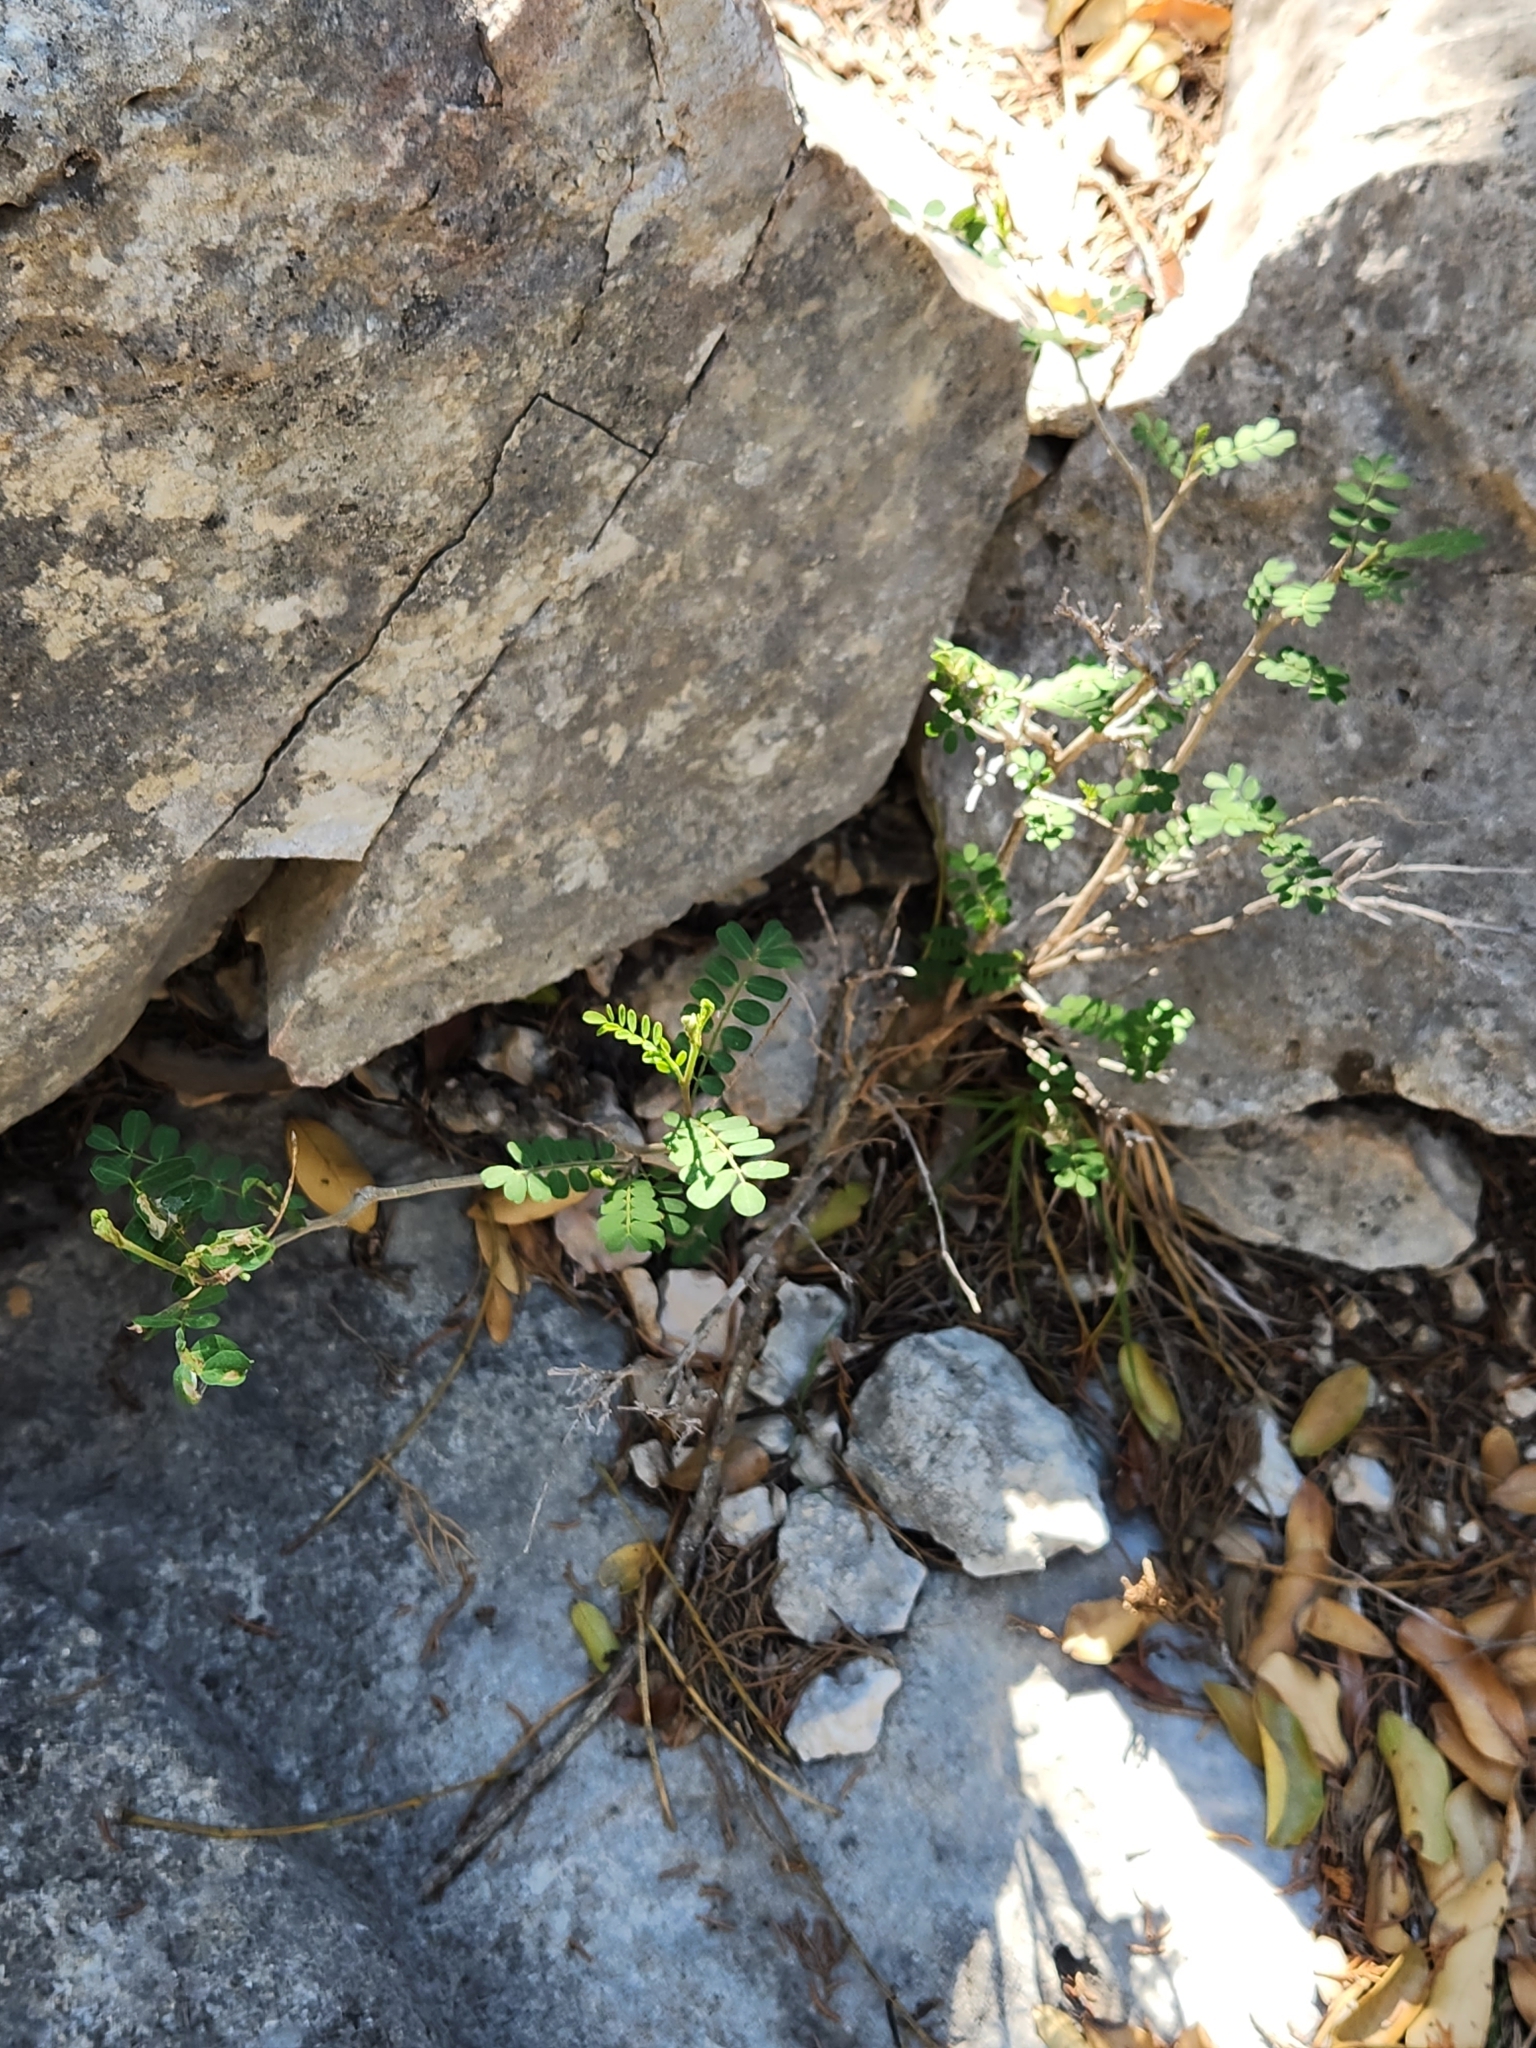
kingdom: Plantae
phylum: Tracheophyta
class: Magnoliopsida
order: Fabales
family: Fabaceae
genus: Eysenhardtia
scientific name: Eysenhardtia texana
